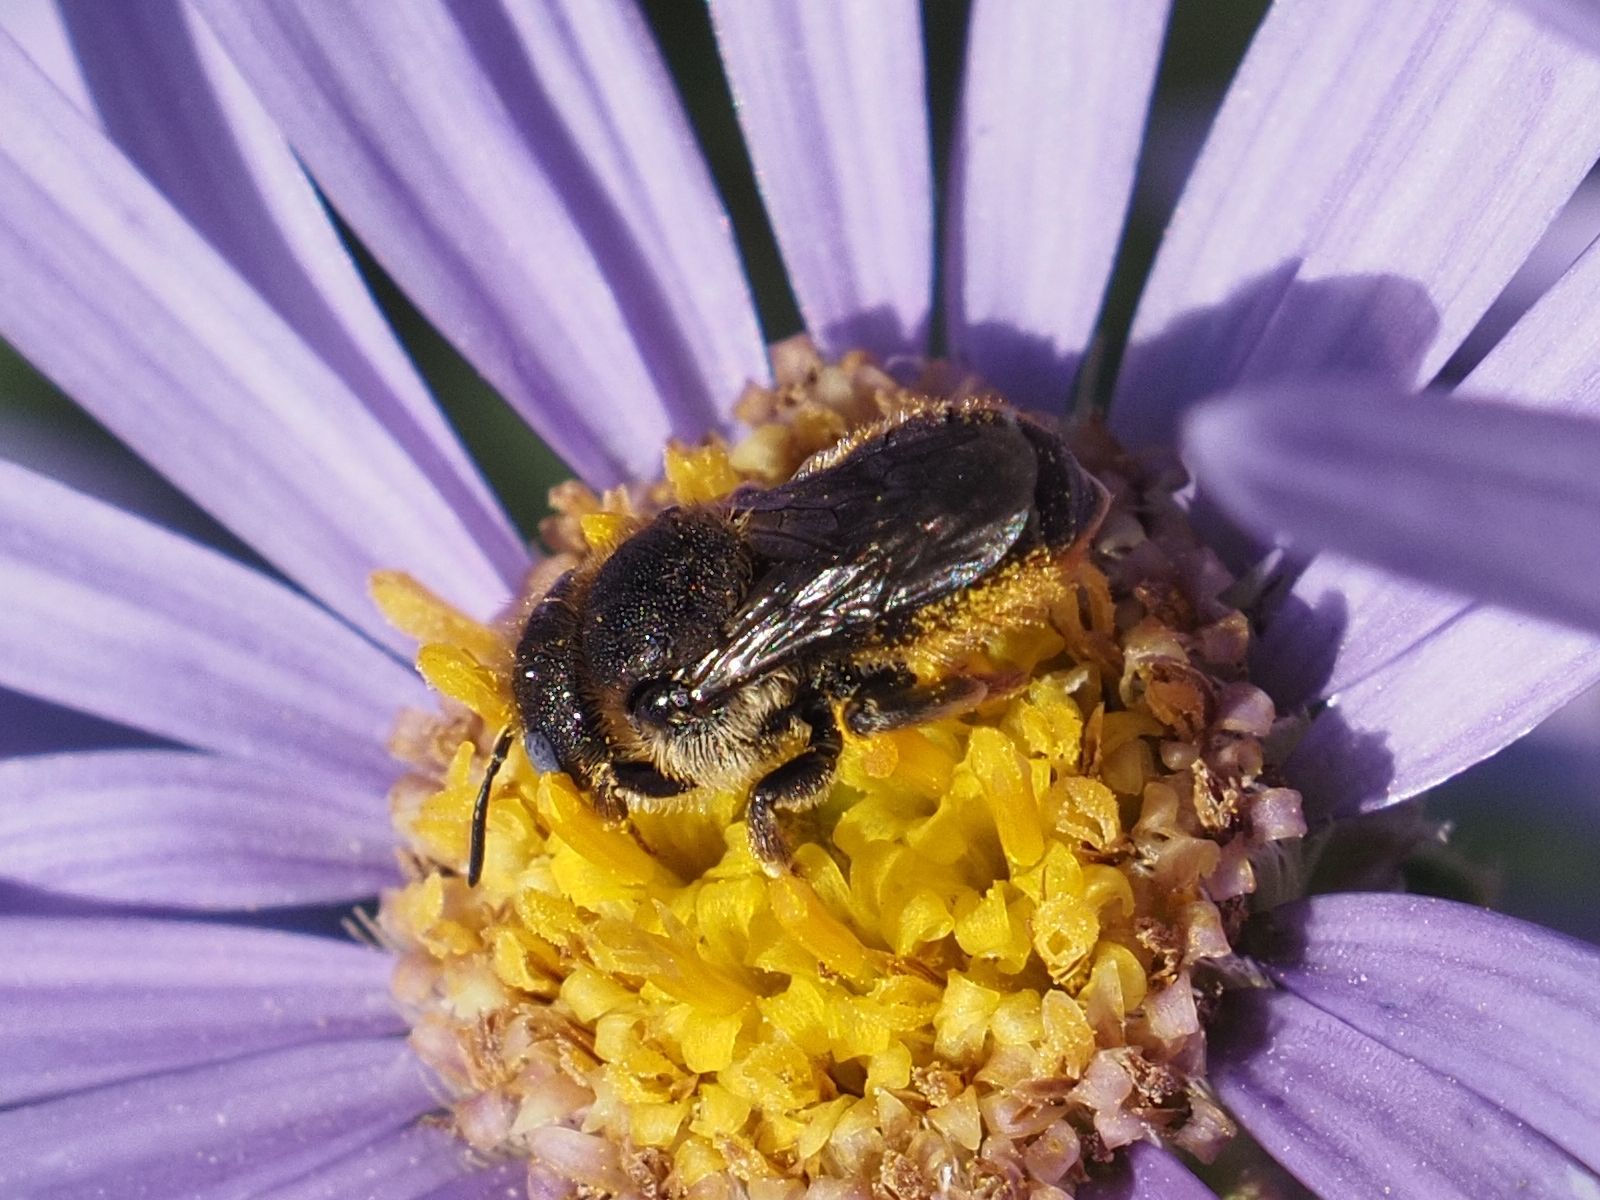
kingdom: Animalia
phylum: Arthropoda
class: Insecta
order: Hymenoptera
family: Megachilidae
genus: Osmia
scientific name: Osmia spinulosa
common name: Spined mason bee
